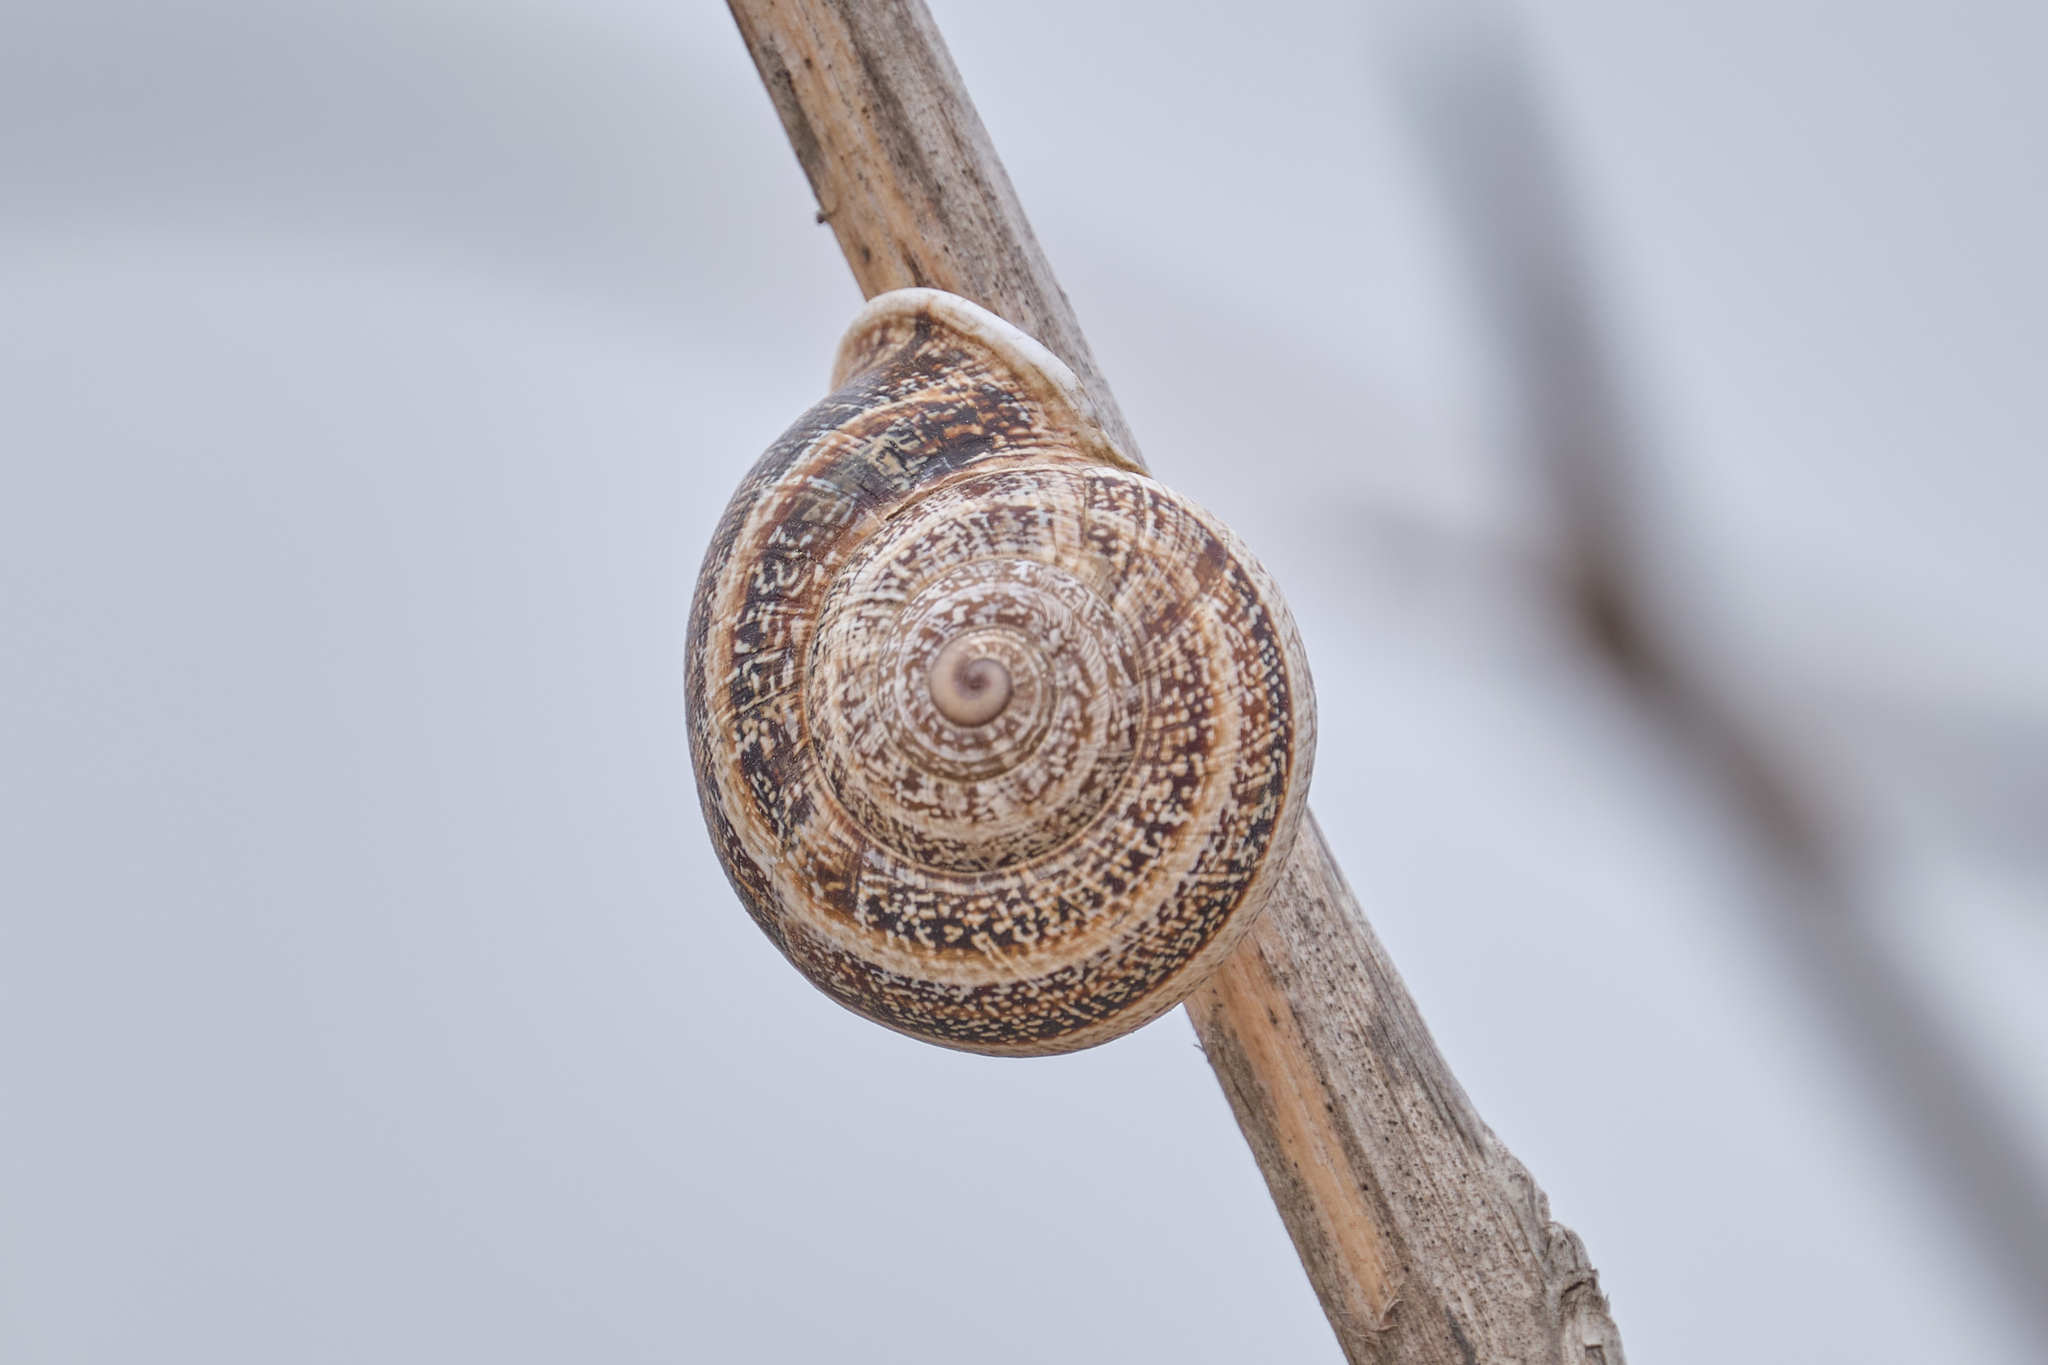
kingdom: Animalia
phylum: Mollusca
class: Gastropoda
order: Stylommatophora
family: Helicidae
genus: Otala
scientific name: Otala lactea
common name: Milk snail
